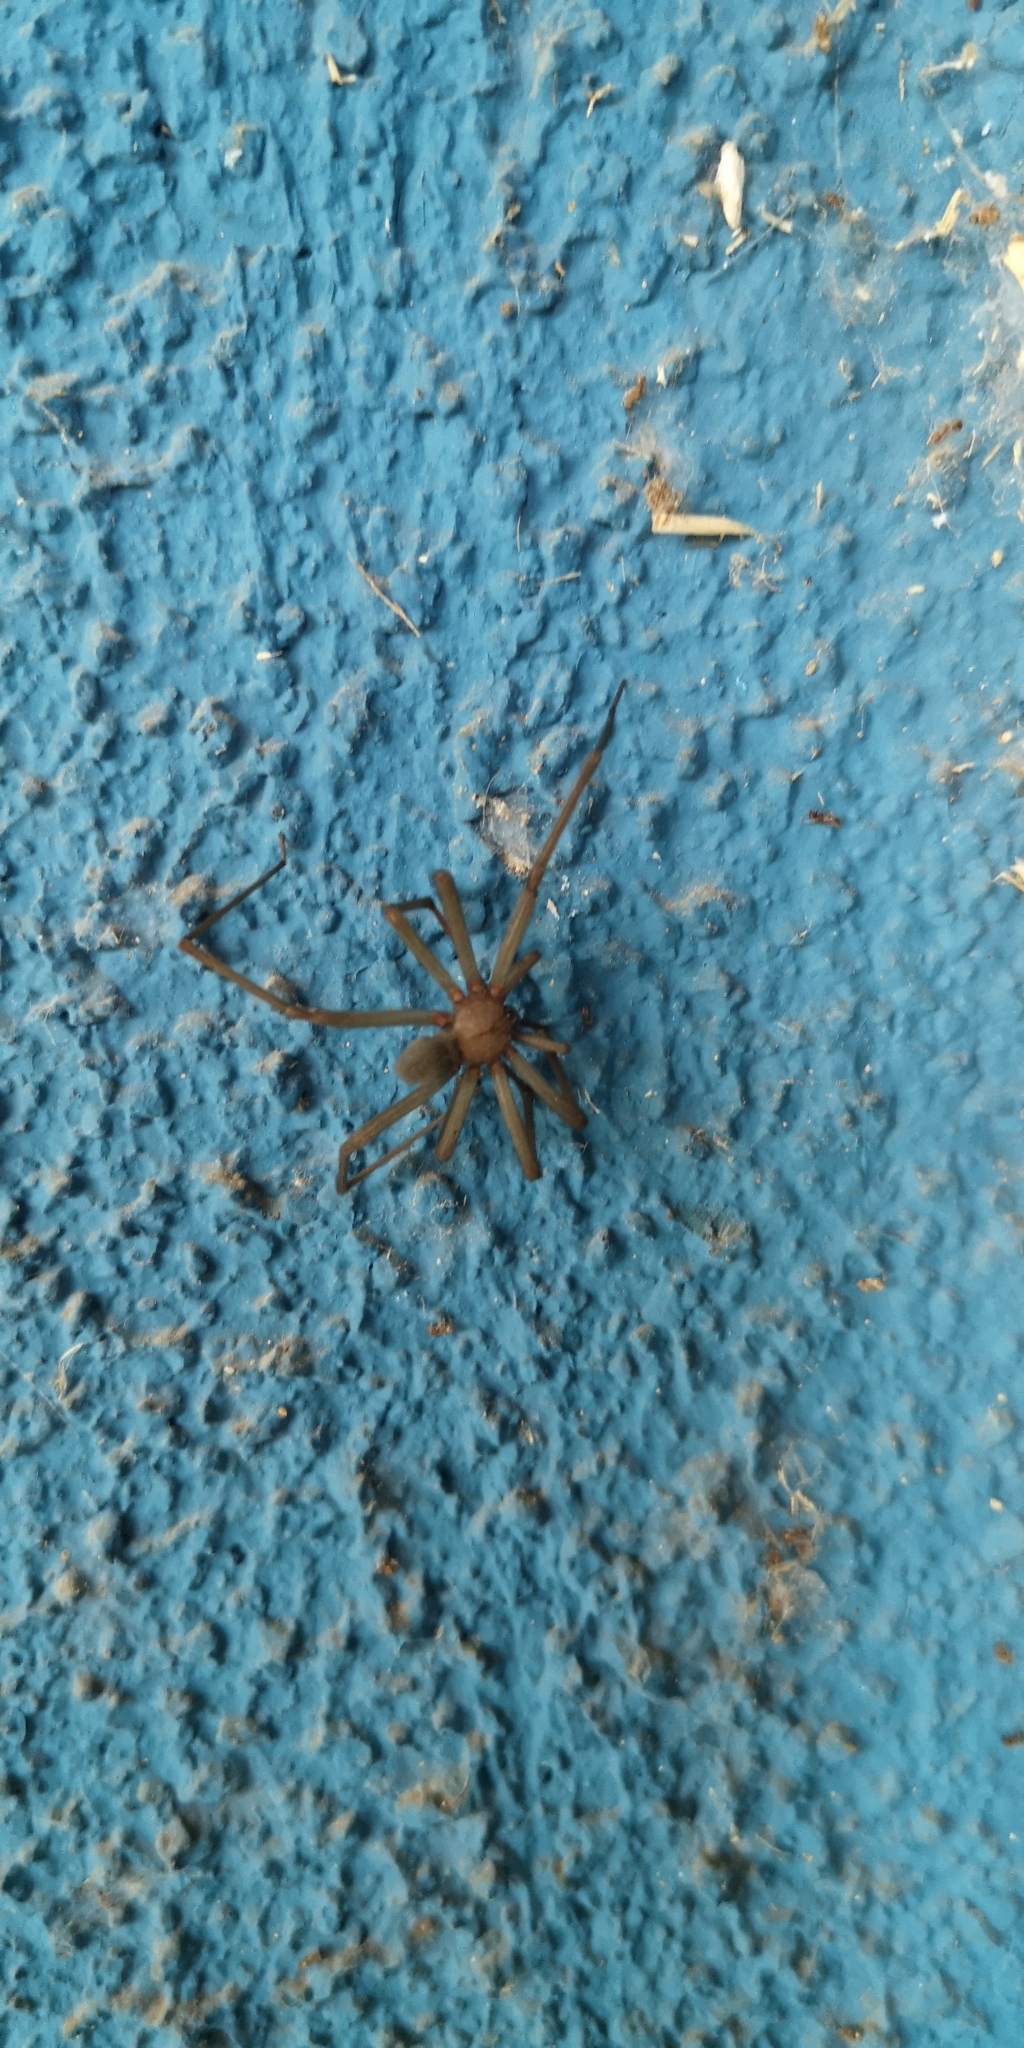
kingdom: Animalia
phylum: Arthropoda
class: Arachnida
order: Araneae
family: Sicariidae
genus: Loxosceles
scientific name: Loxosceles laeta
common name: Chilean recluse spider
